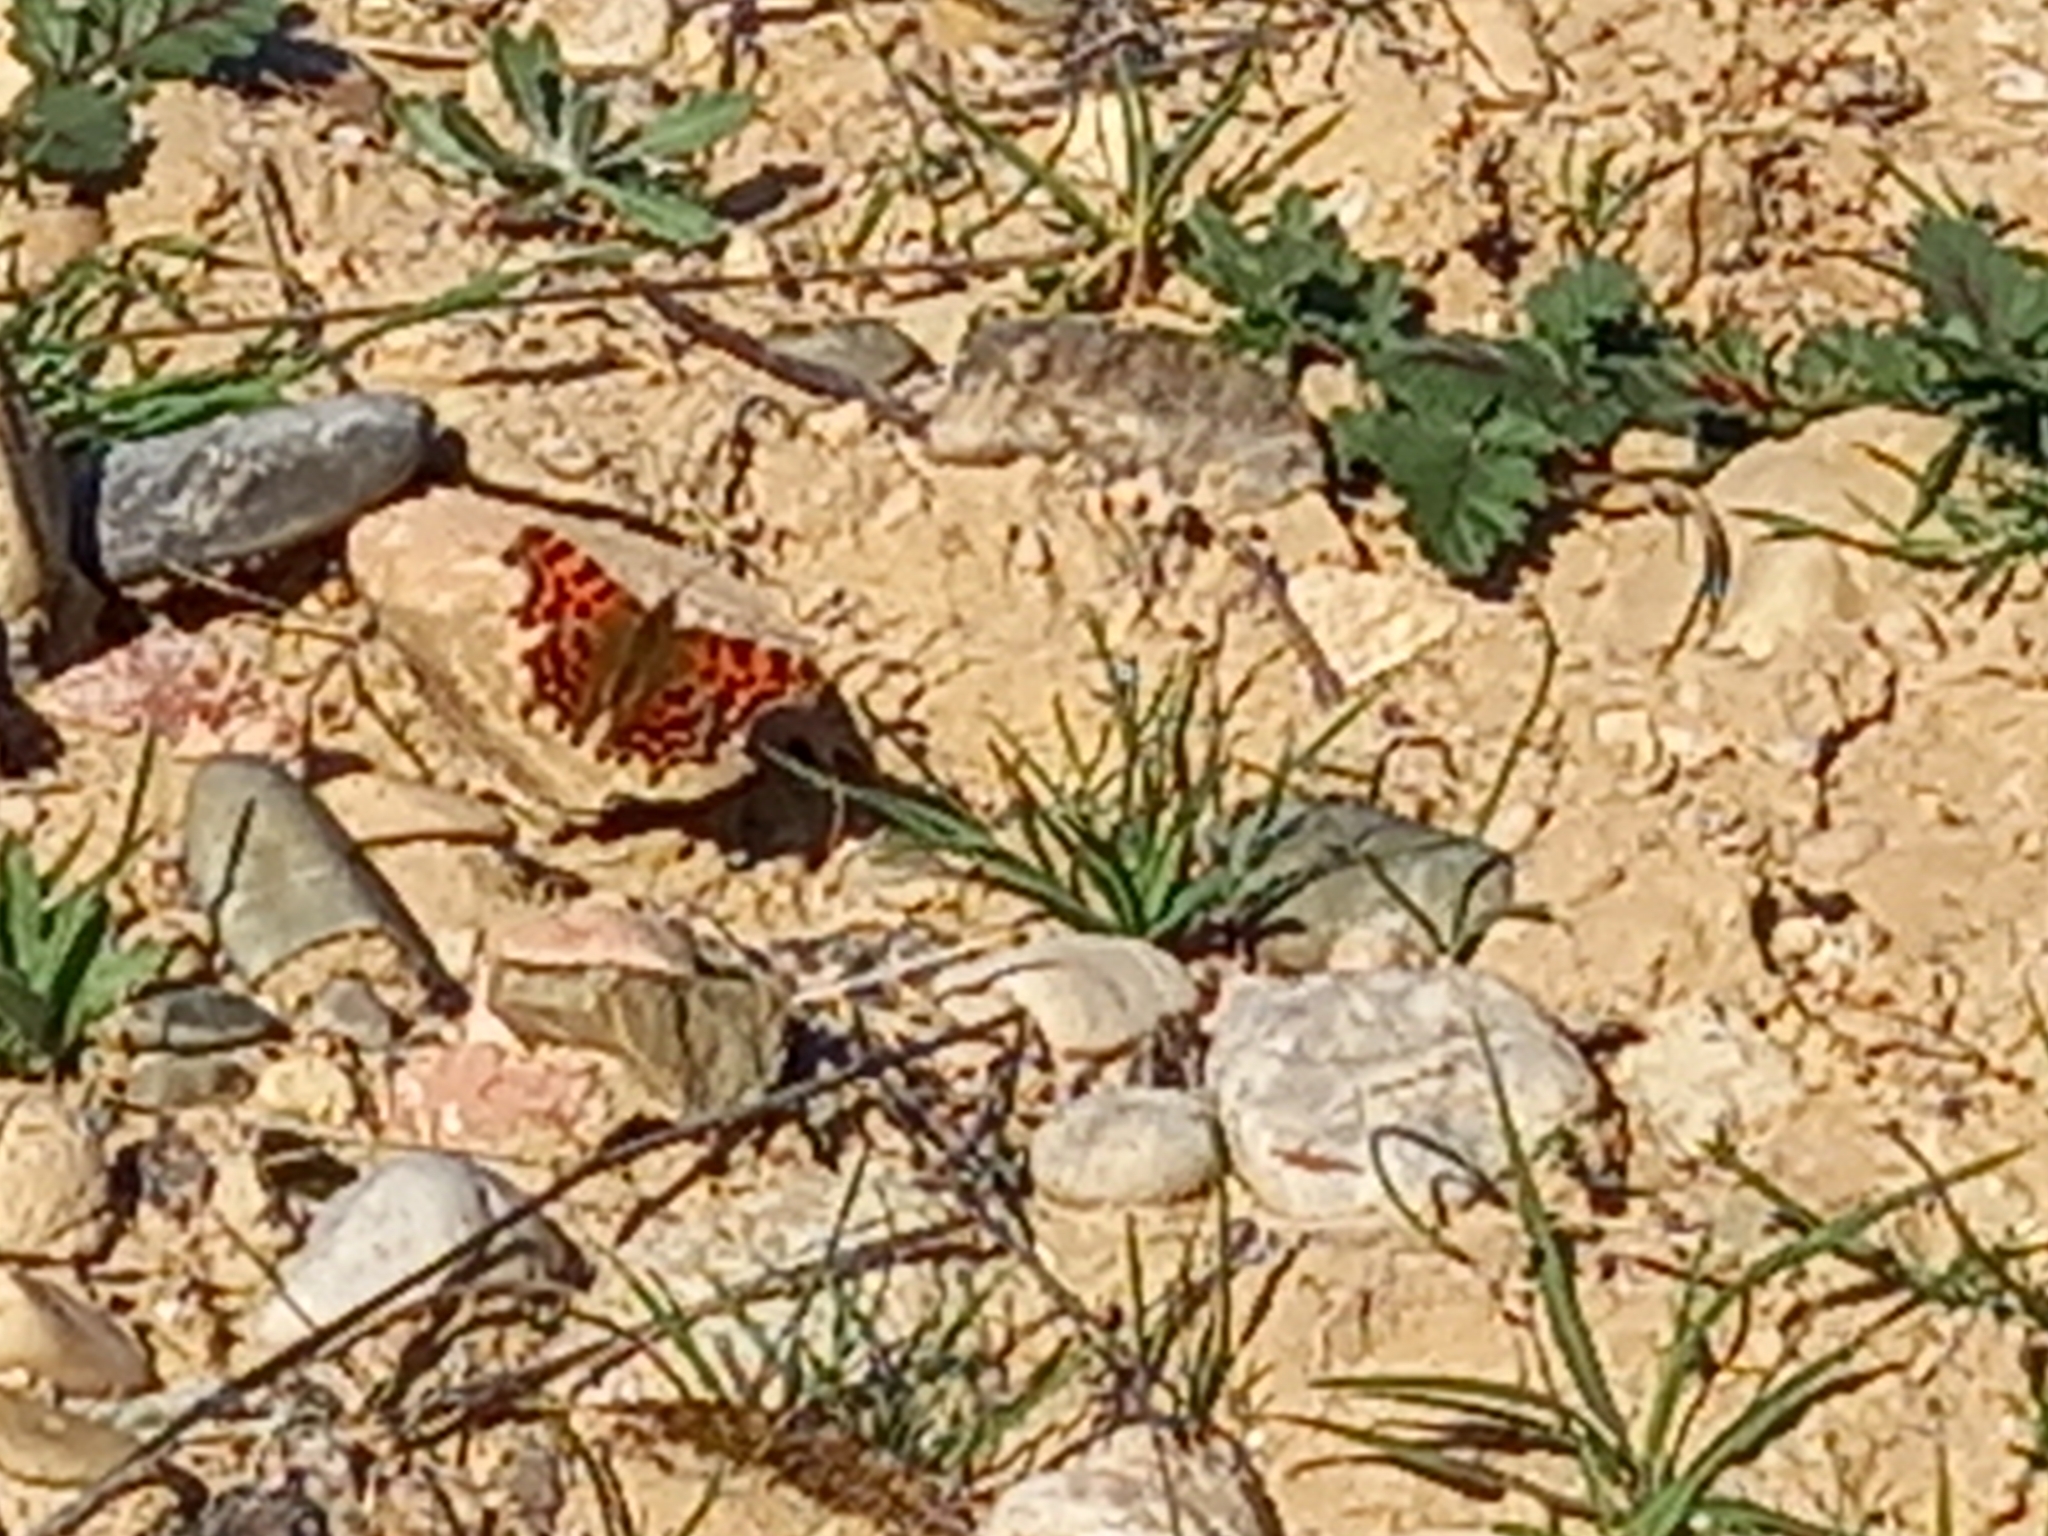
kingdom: Animalia
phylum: Arthropoda
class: Insecta
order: Lepidoptera
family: Nymphalidae
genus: Polygonia
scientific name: Polygonia c-album
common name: Comma
